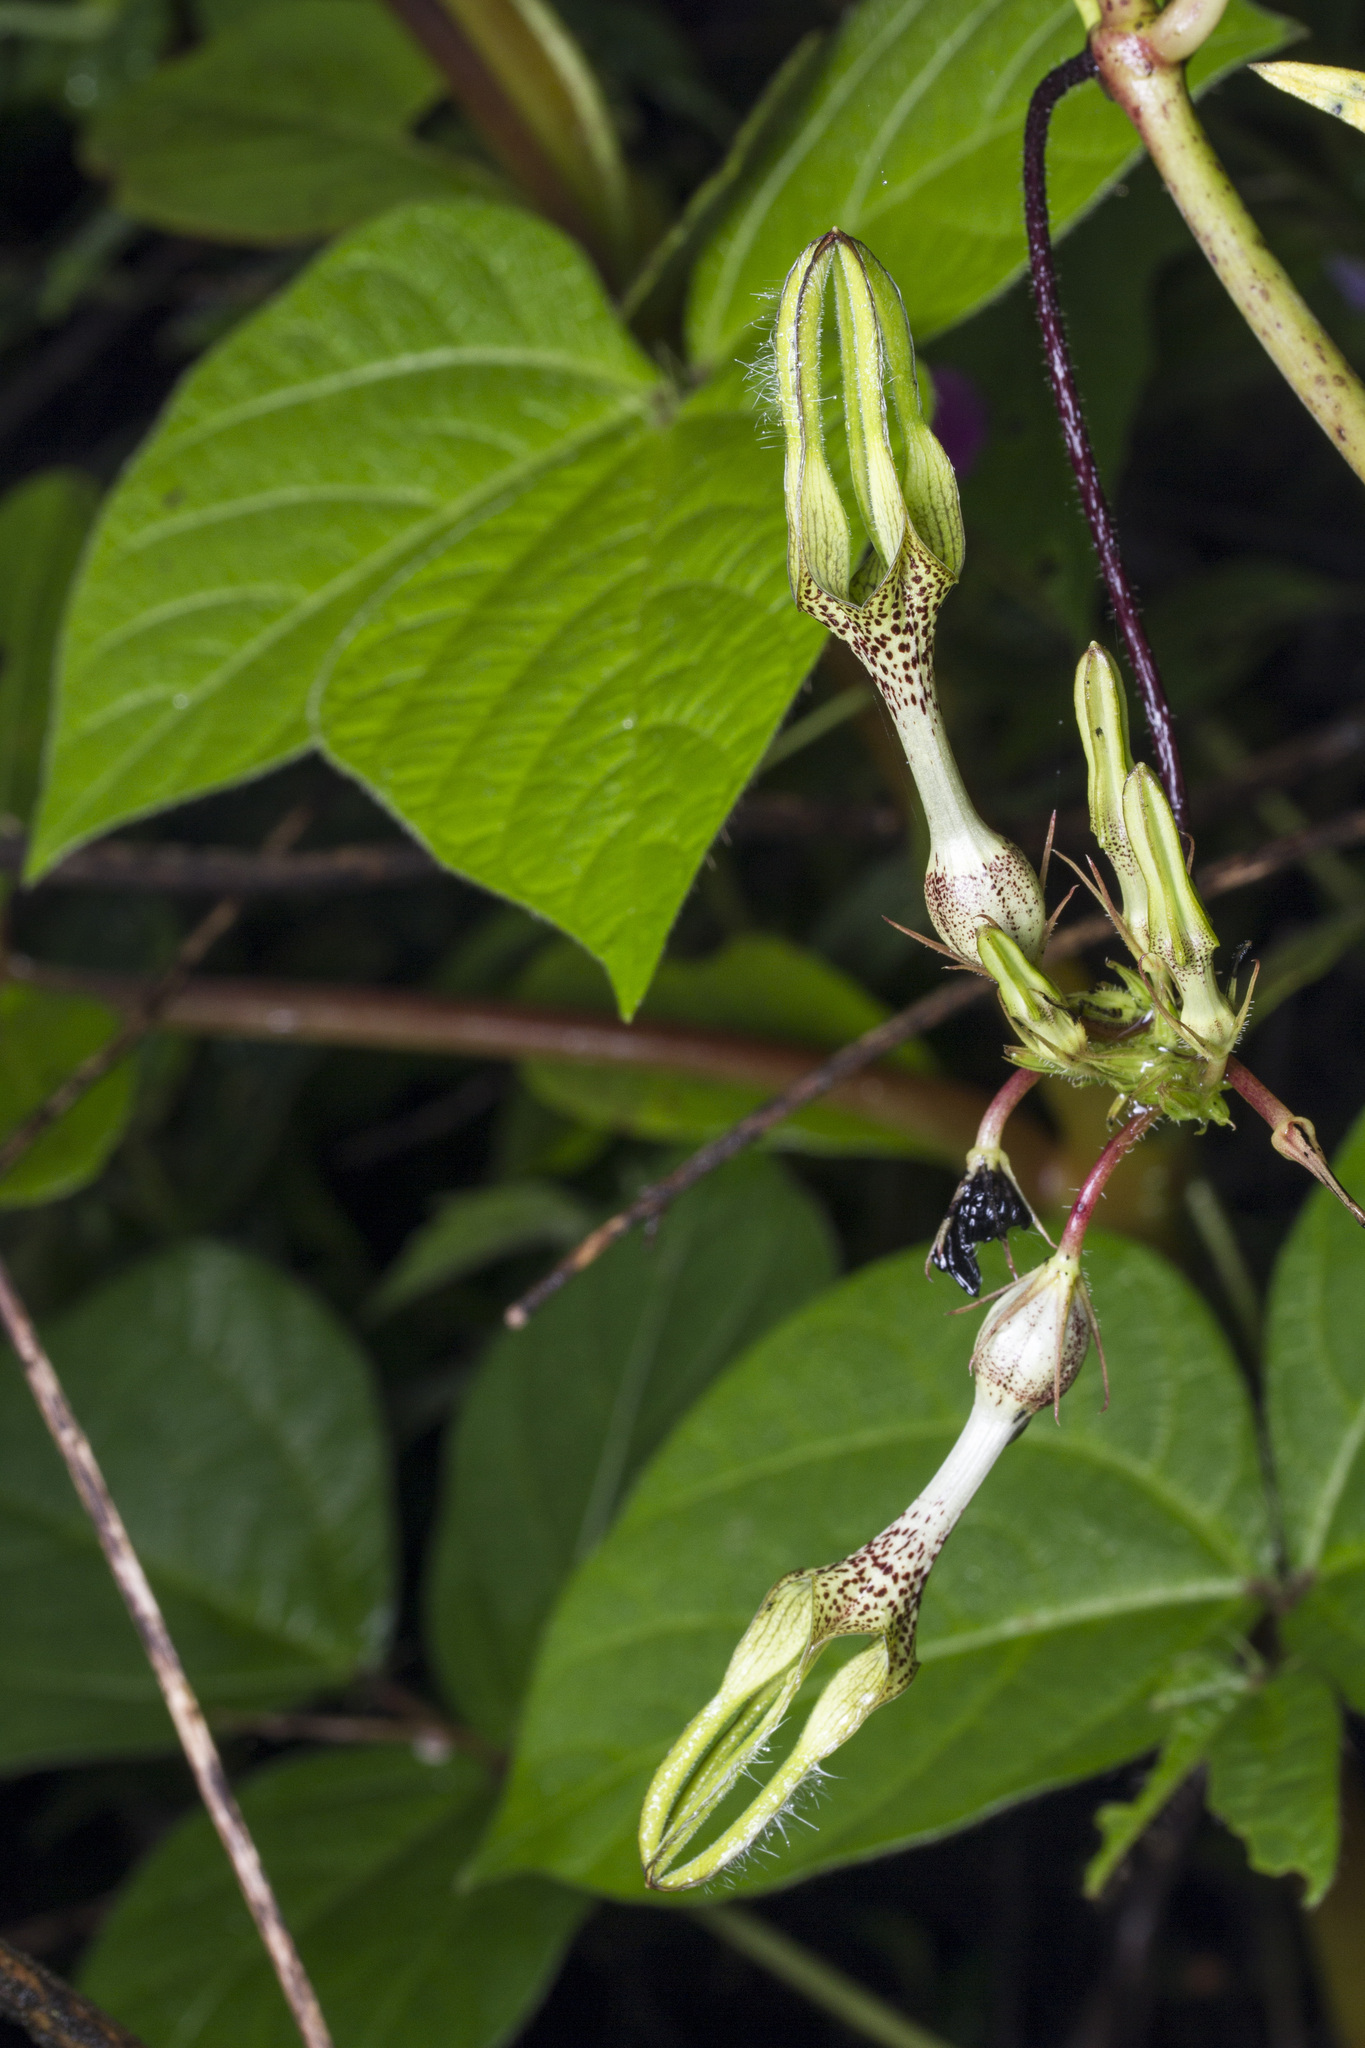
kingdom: Plantae
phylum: Tracheophyta
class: Magnoliopsida
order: Gentianales
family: Apocynaceae
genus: Ceropegia
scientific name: Ceropegia vincifolia
